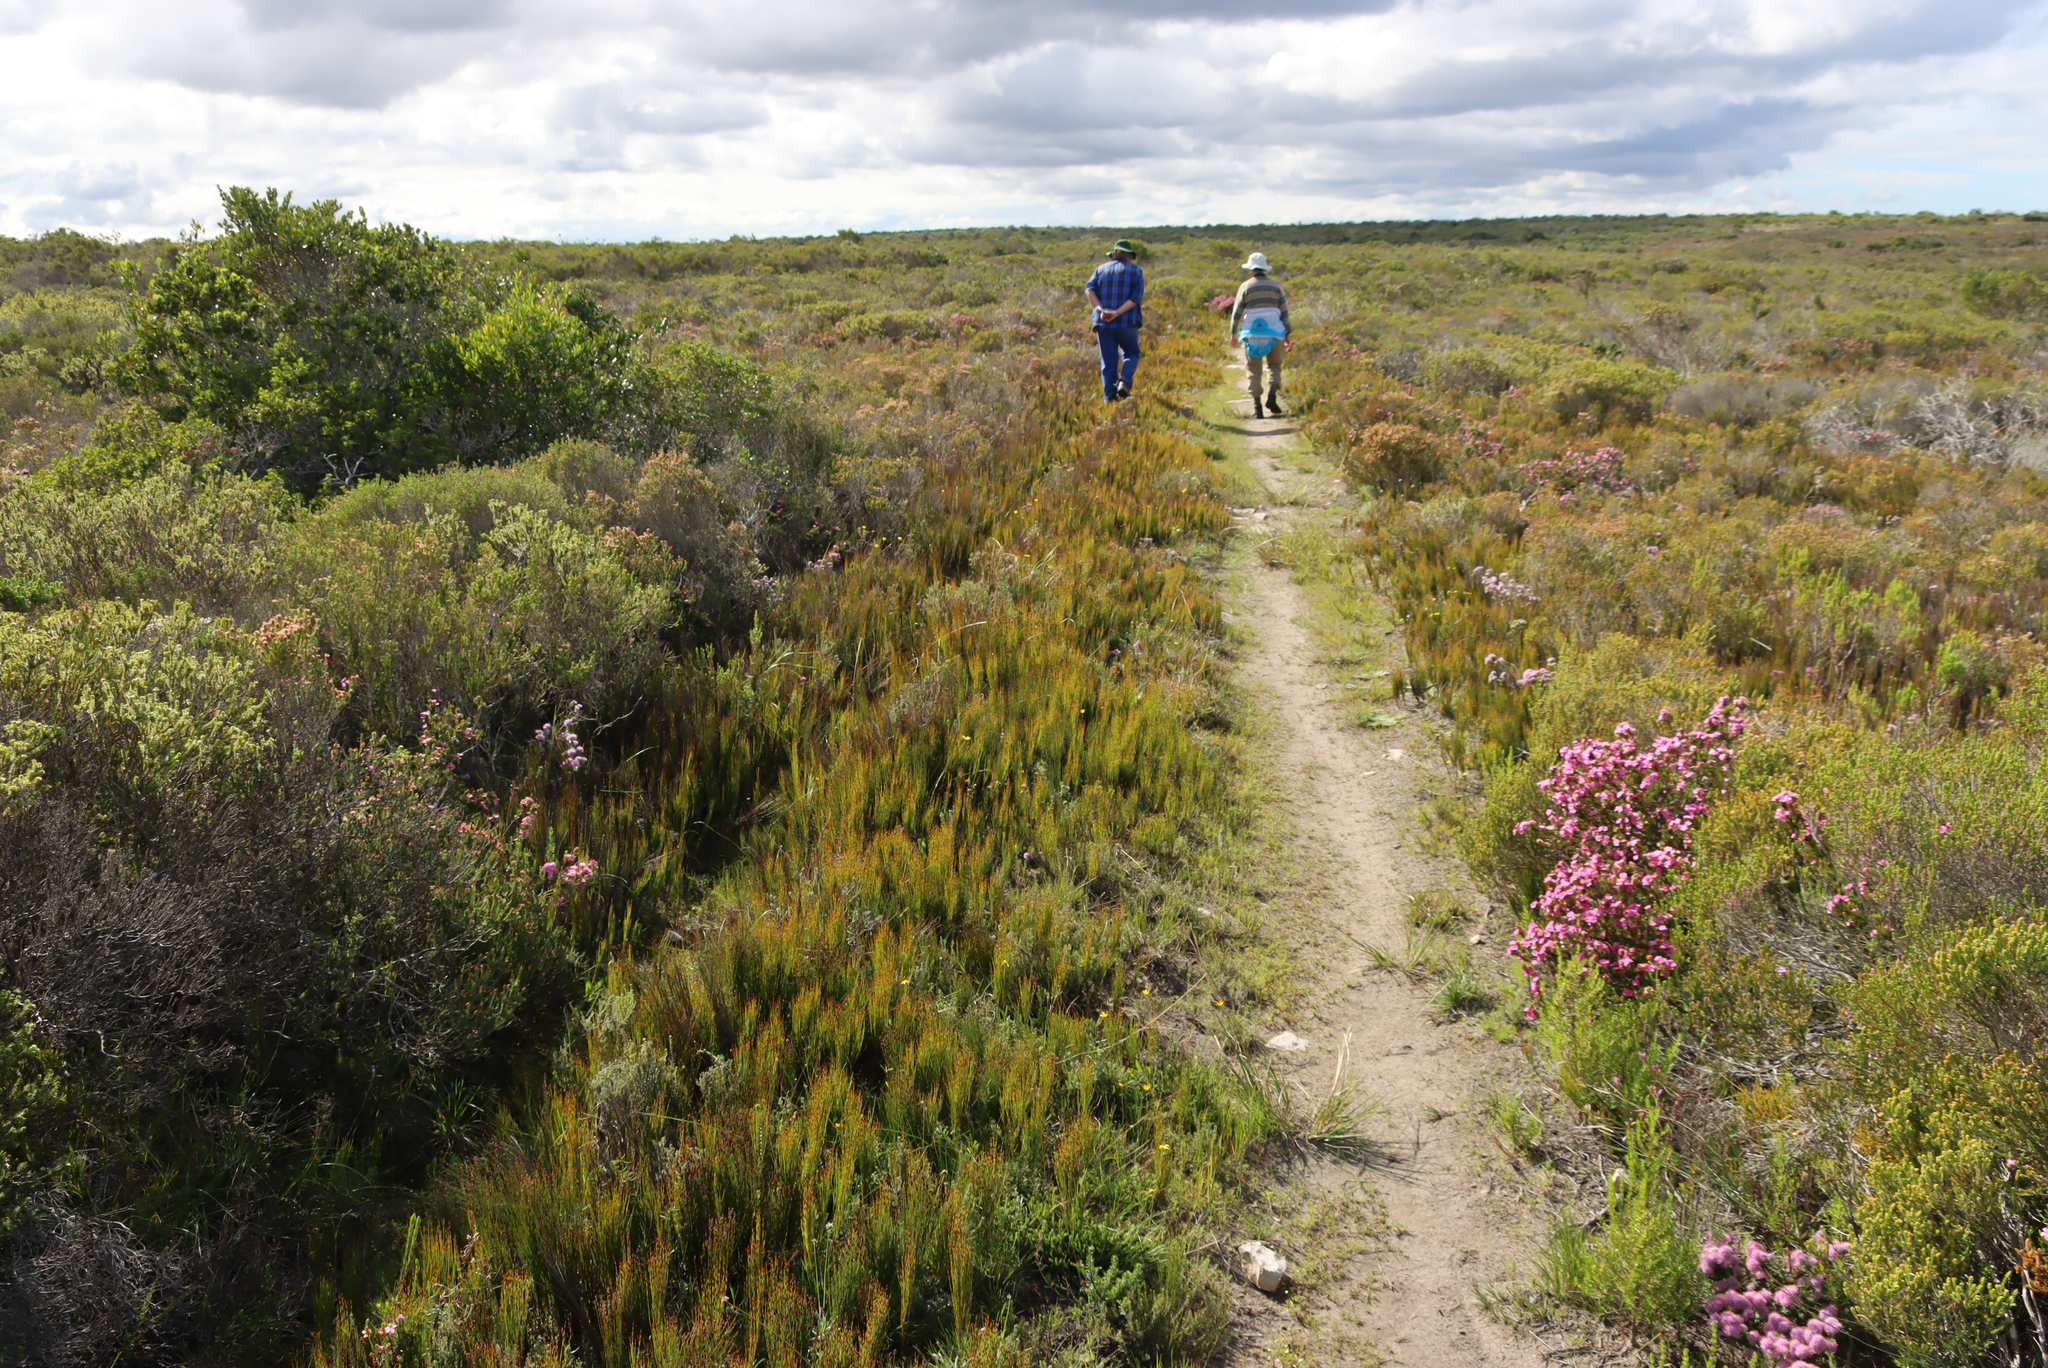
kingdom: Plantae
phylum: Tracheophyta
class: Liliopsida
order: Poales
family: Restionaceae
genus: Elegia
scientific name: Elegia microcarpa
